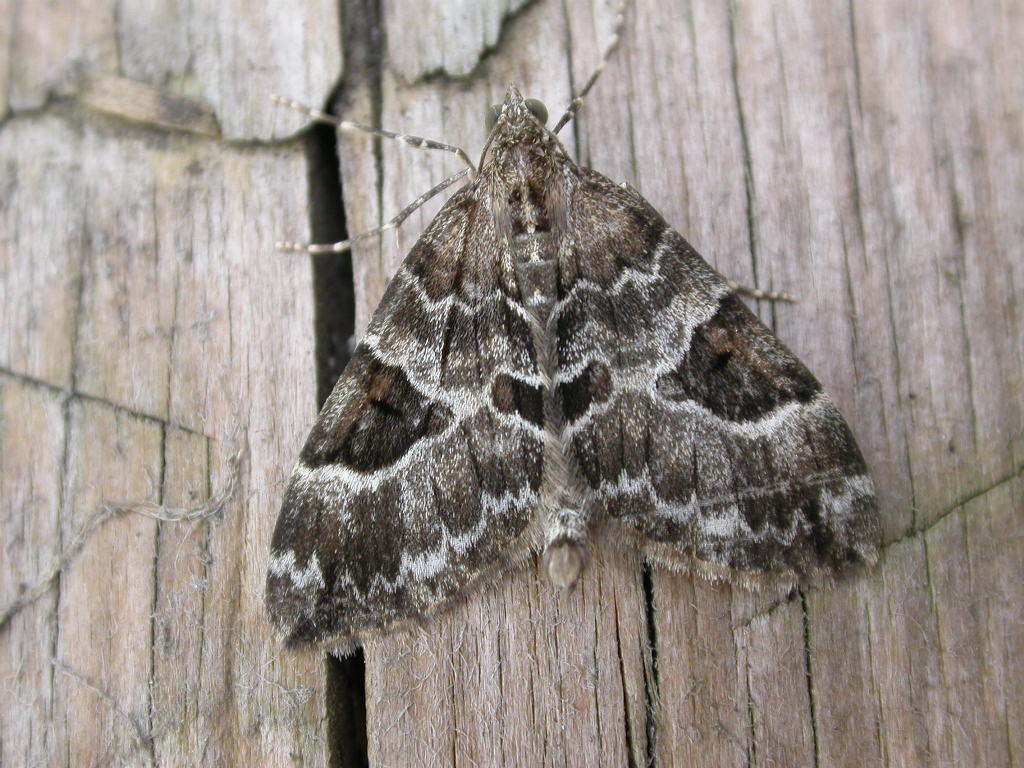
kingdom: Animalia
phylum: Arthropoda
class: Insecta
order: Lepidoptera
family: Geometridae
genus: Thera
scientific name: Thera variata
